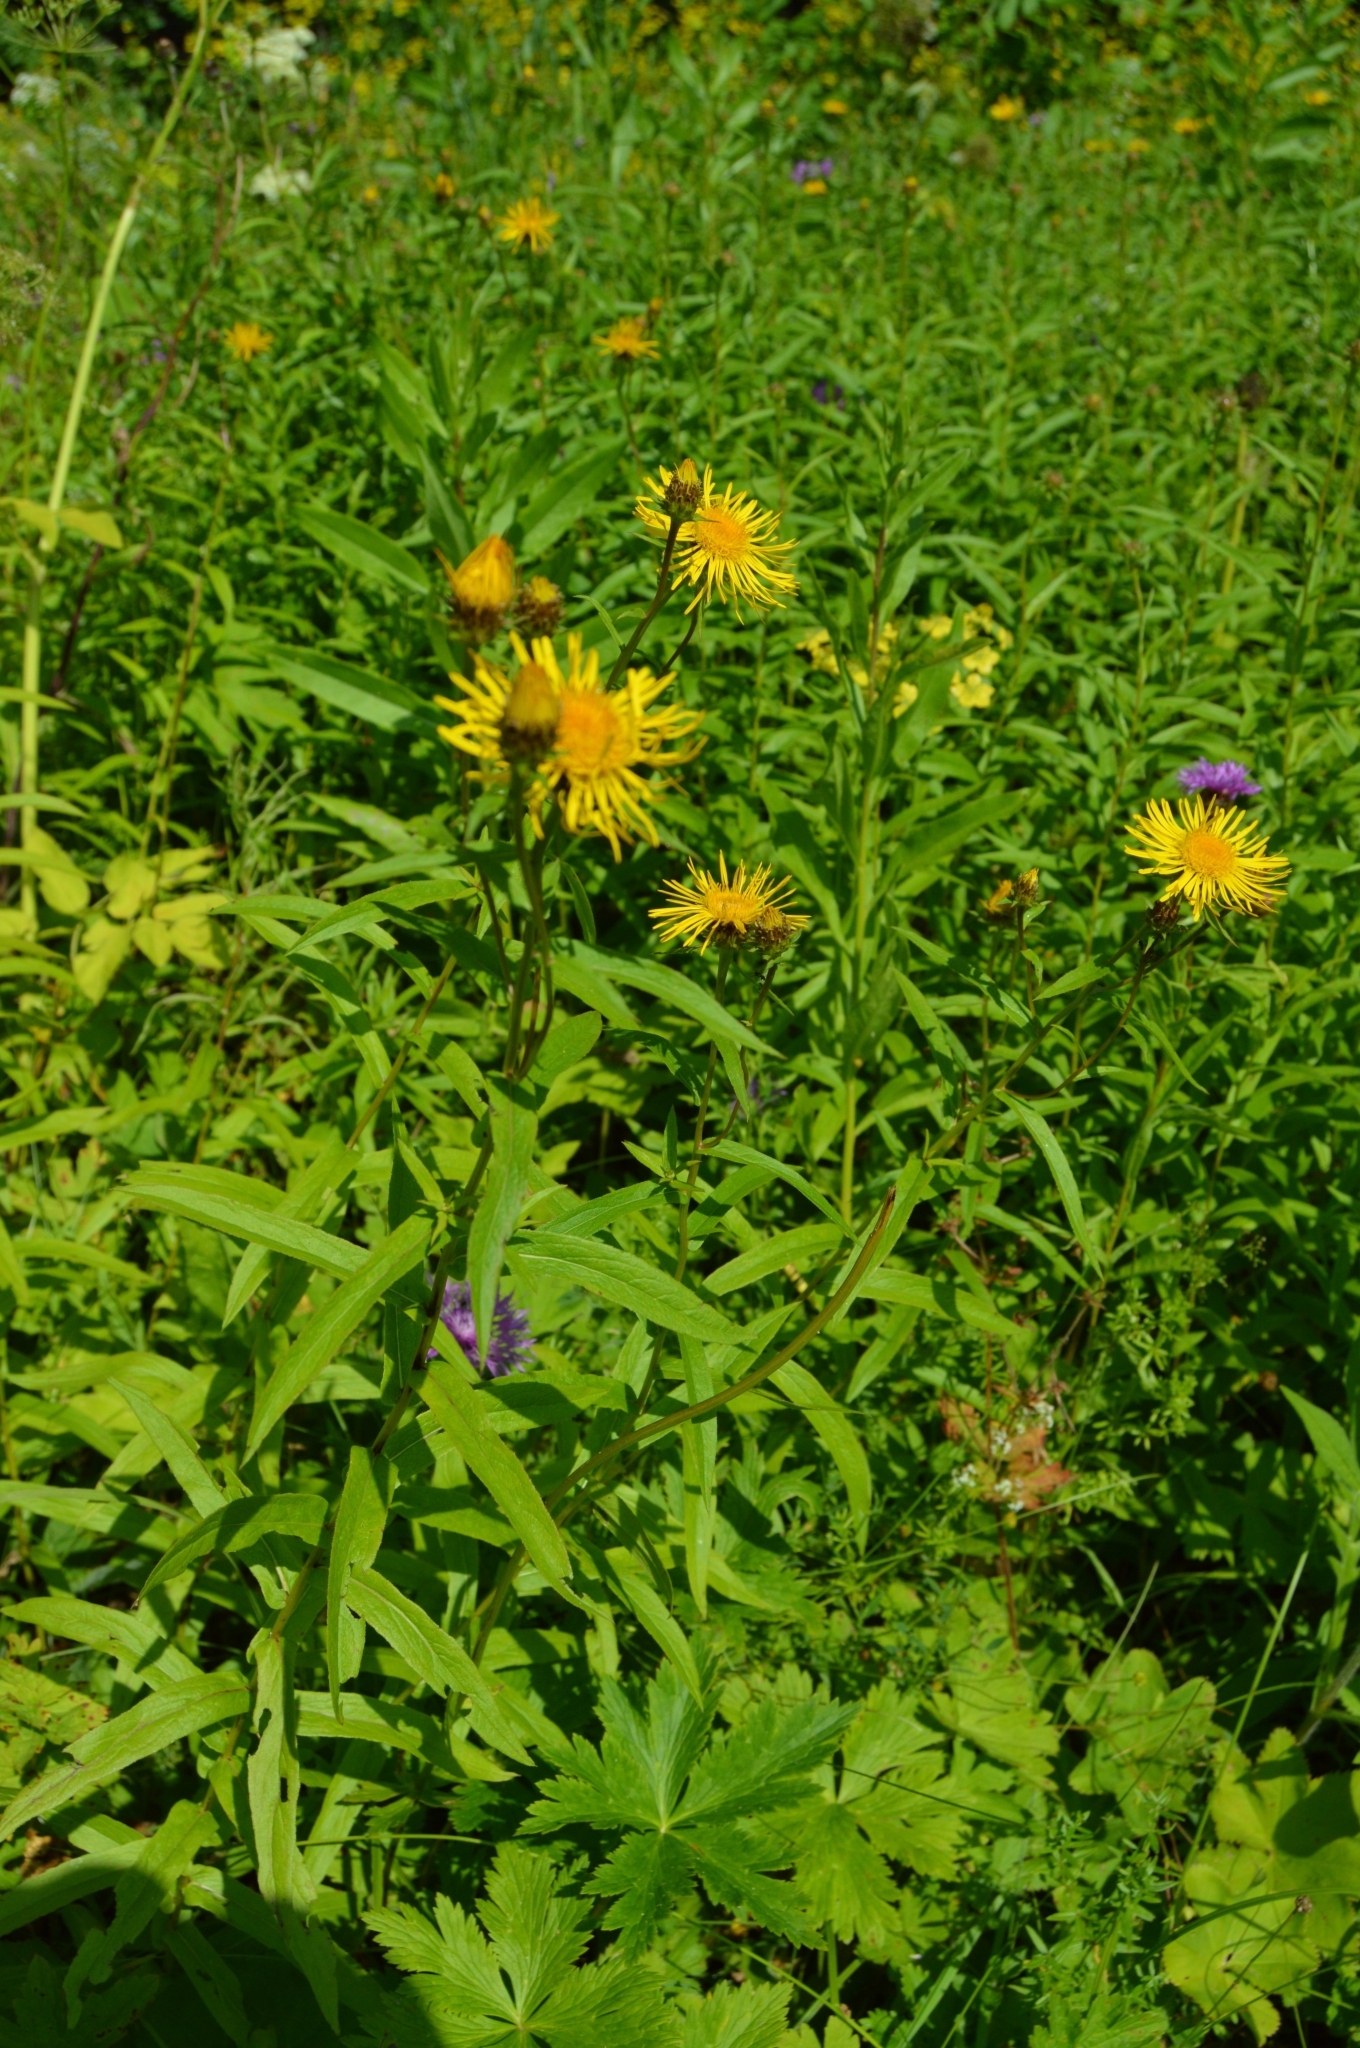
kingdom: Plantae
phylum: Tracheophyta
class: Magnoliopsida
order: Asterales
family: Asteraceae
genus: Pentanema
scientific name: Pentanema salicinum
